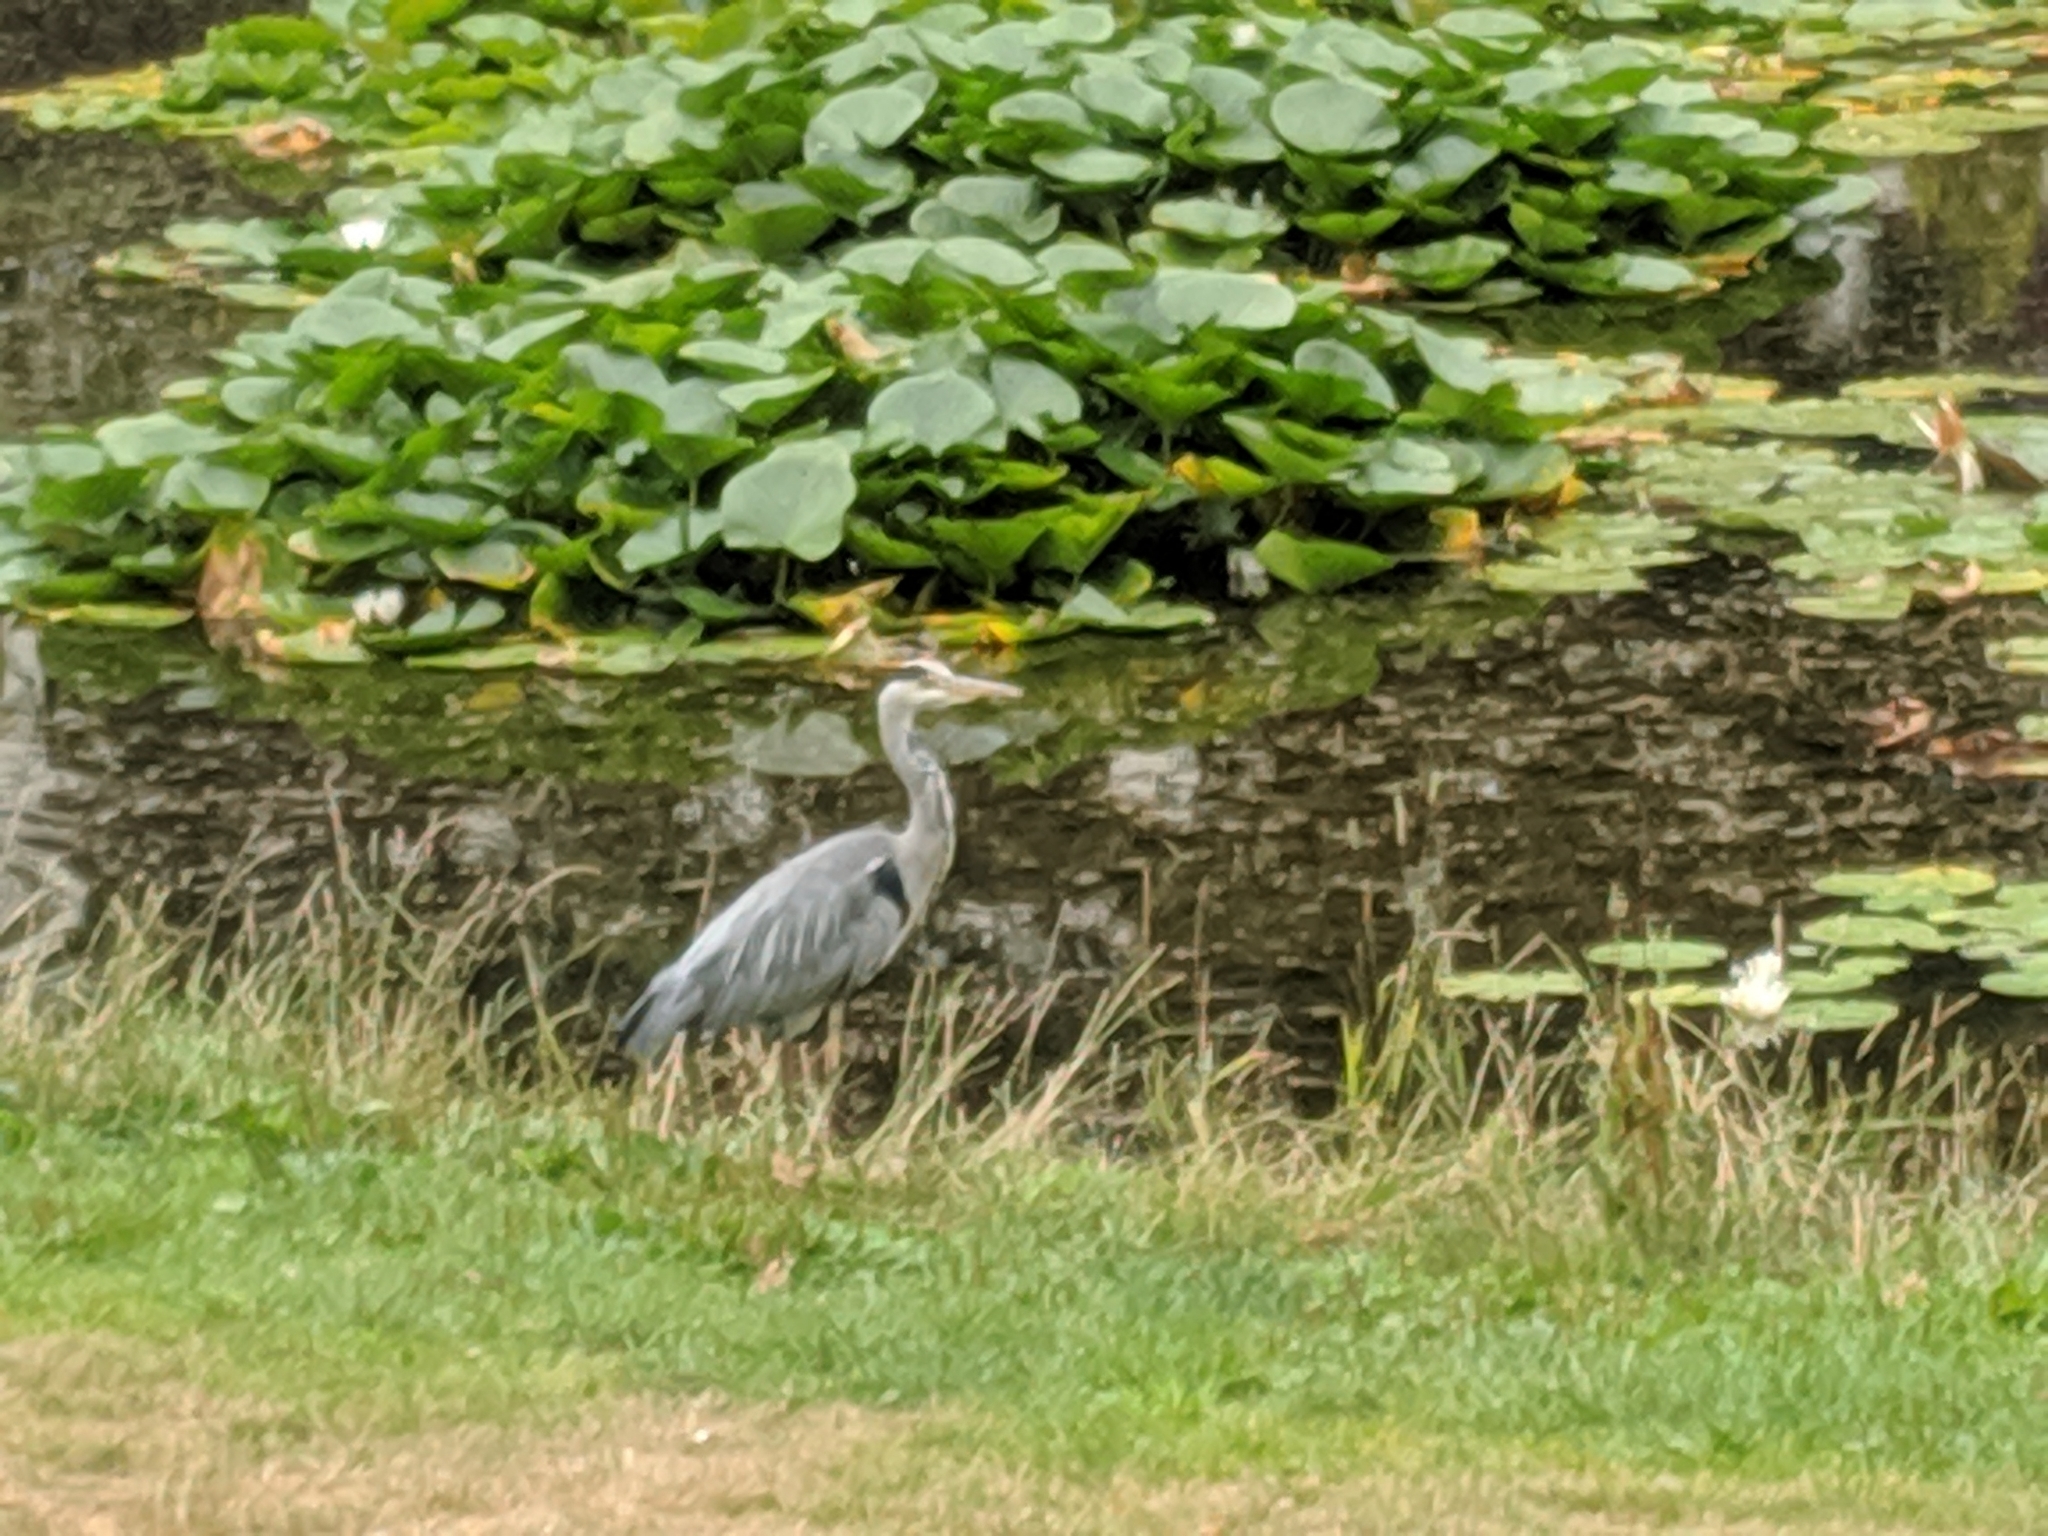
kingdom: Animalia
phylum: Chordata
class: Aves
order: Pelecaniformes
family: Ardeidae
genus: Ardea
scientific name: Ardea cinerea
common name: Grey heron
